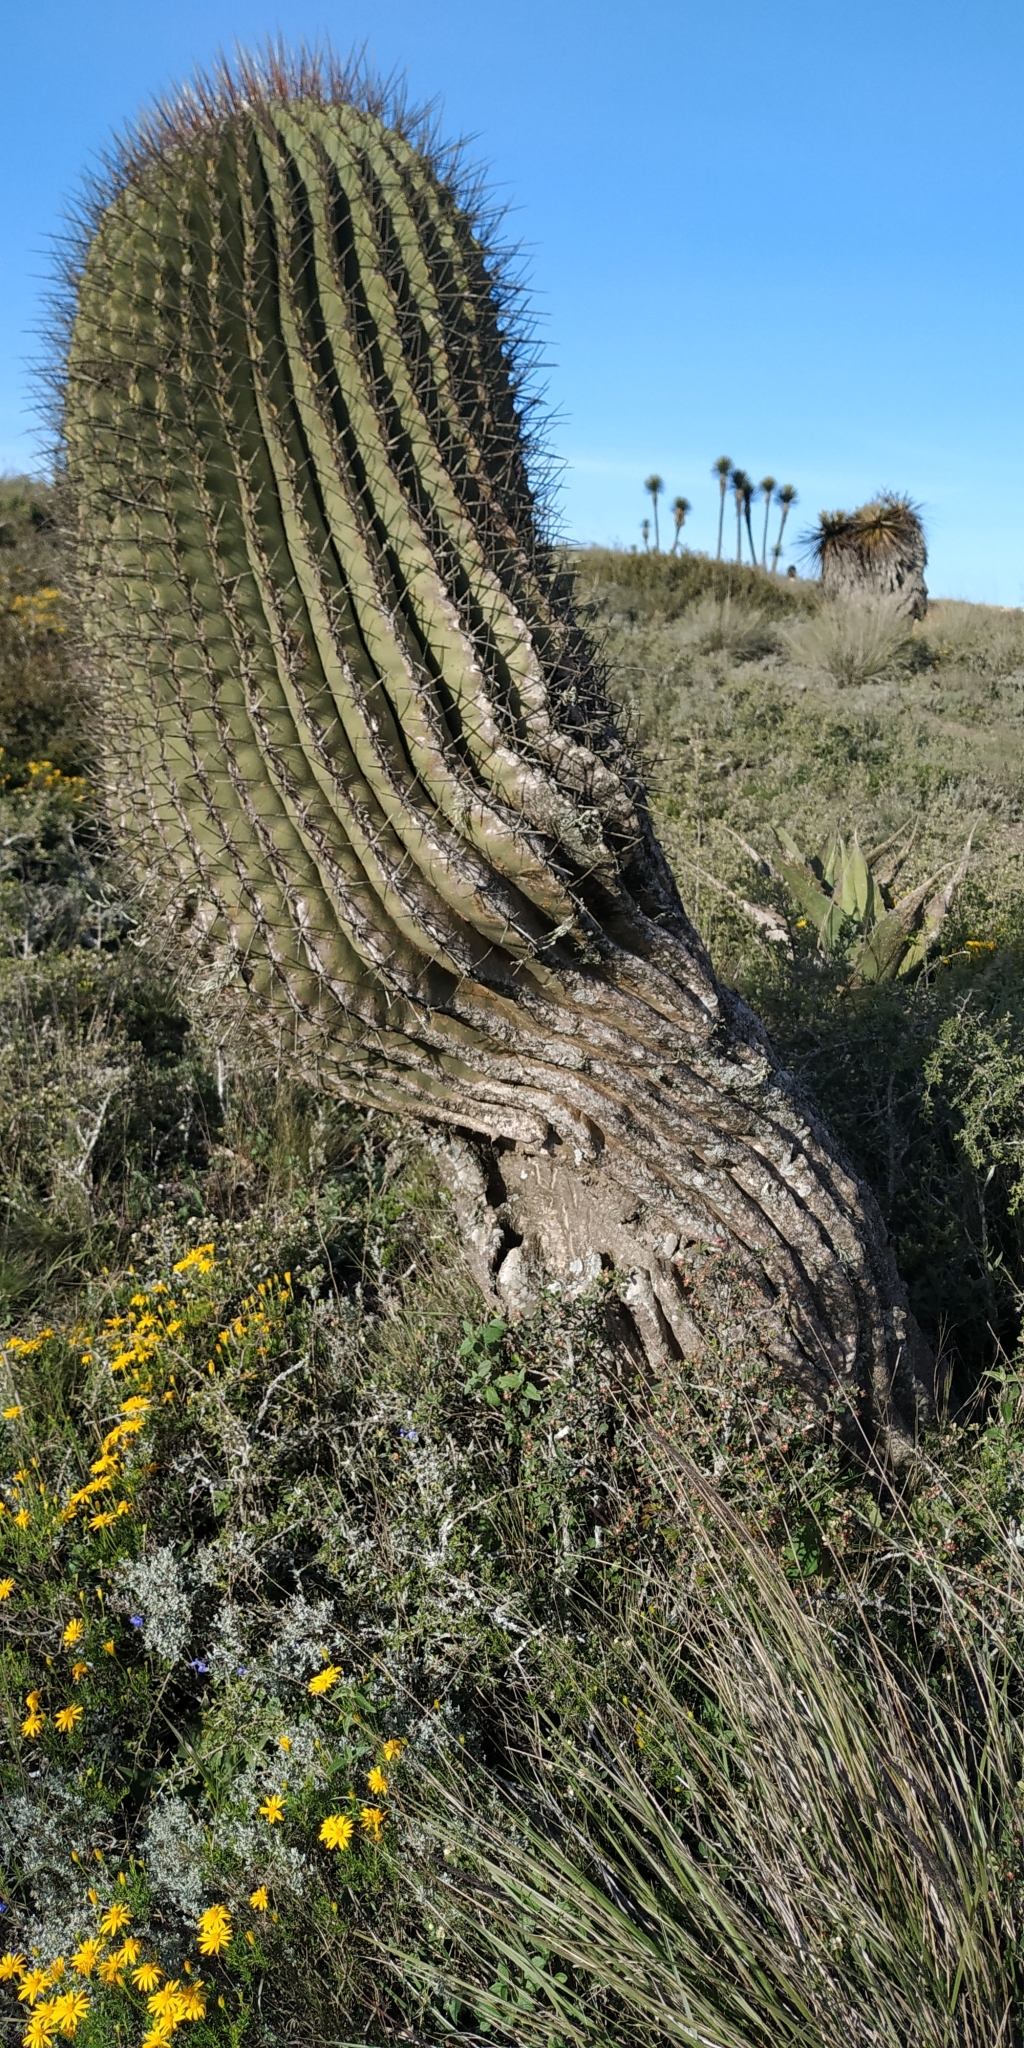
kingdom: Plantae
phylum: Tracheophyta
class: Magnoliopsida
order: Caryophyllales
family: Cactaceae
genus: Ferocactus
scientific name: Ferocactus haematacanthus
